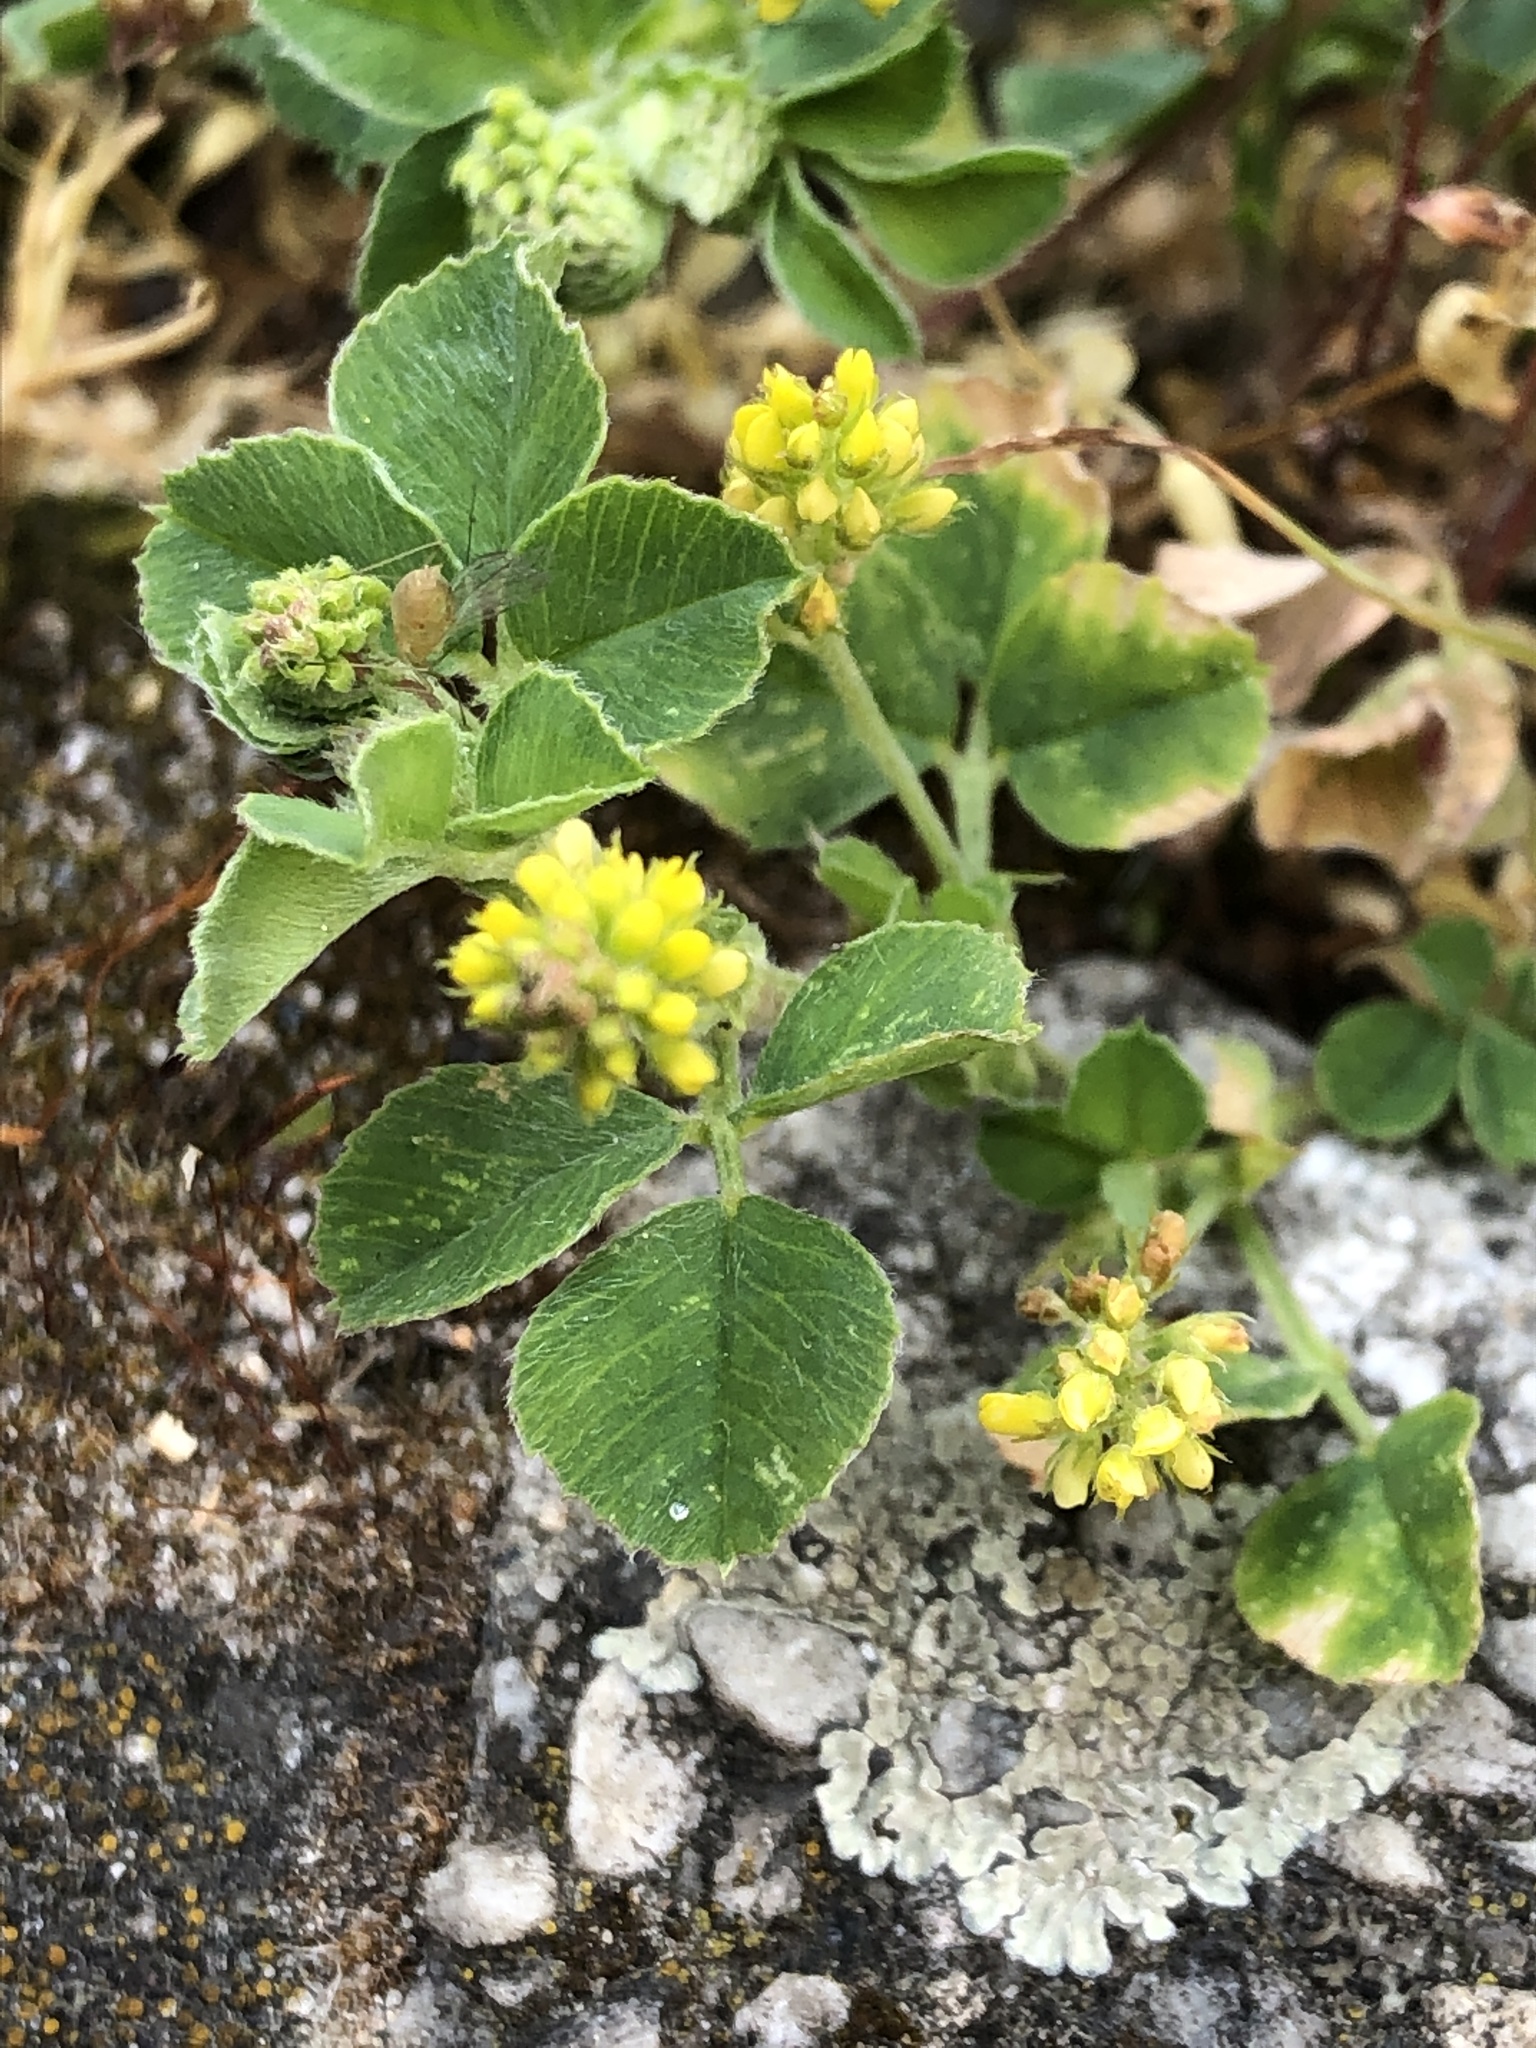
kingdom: Plantae
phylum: Tracheophyta
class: Magnoliopsida
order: Fabales
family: Fabaceae
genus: Medicago
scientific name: Medicago lupulina
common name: Black medick
